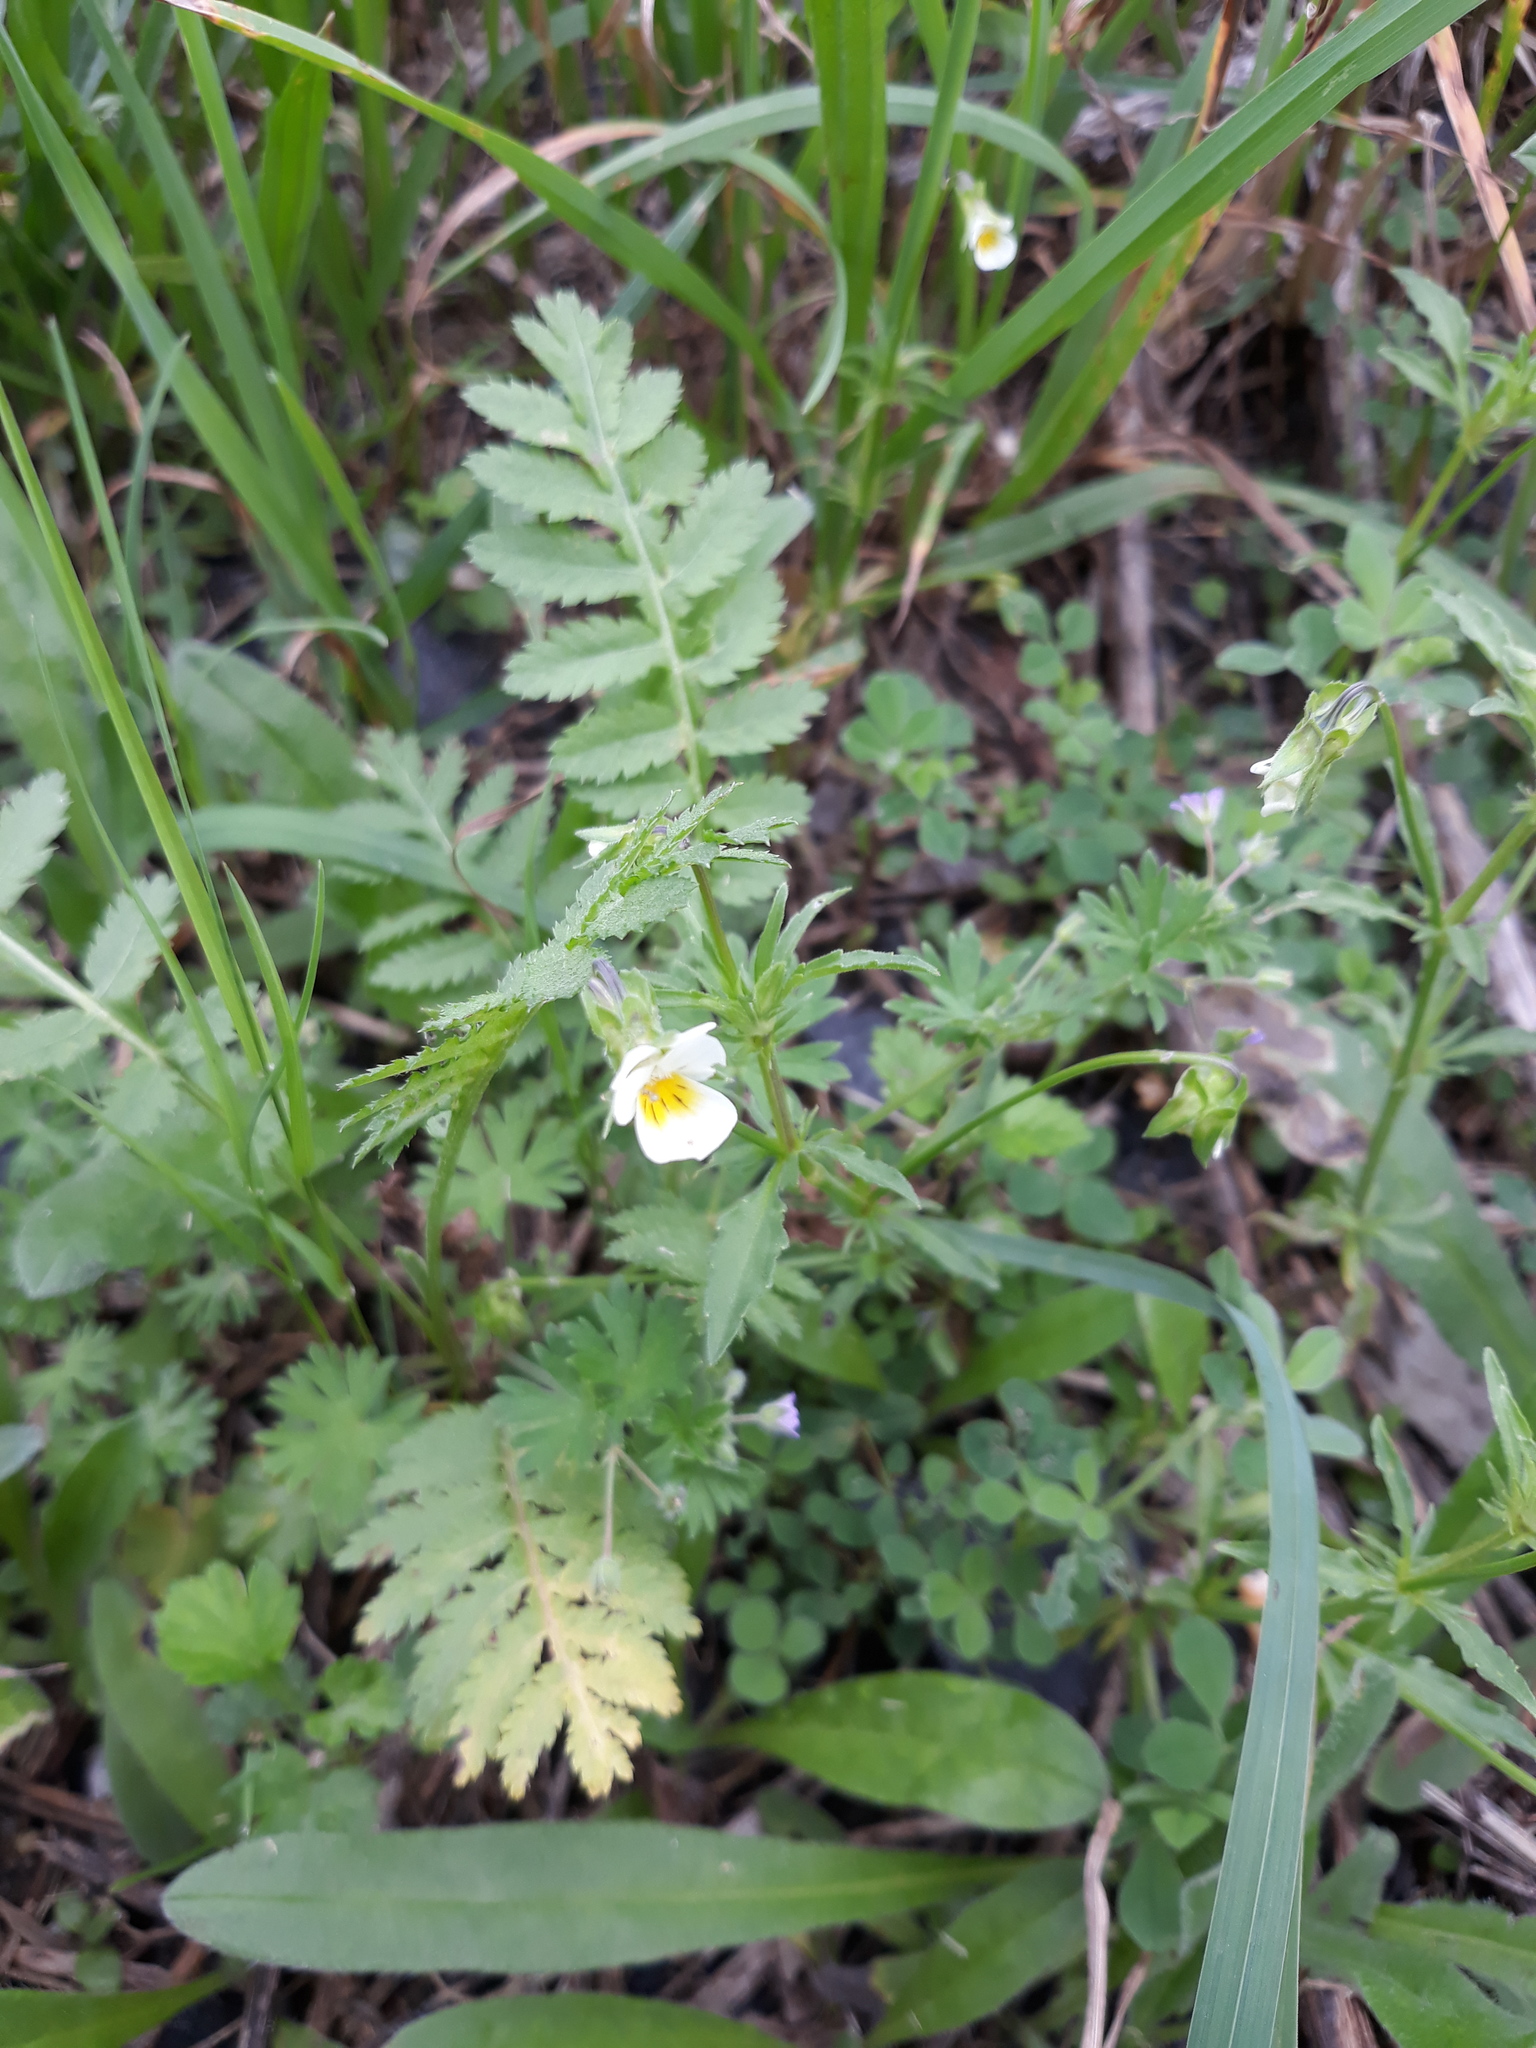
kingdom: Plantae
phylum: Tracheophyta
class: Magnoliopsida
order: Malpighiales
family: Violaceae
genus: Viola
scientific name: Viola arvensis
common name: Field pansy
